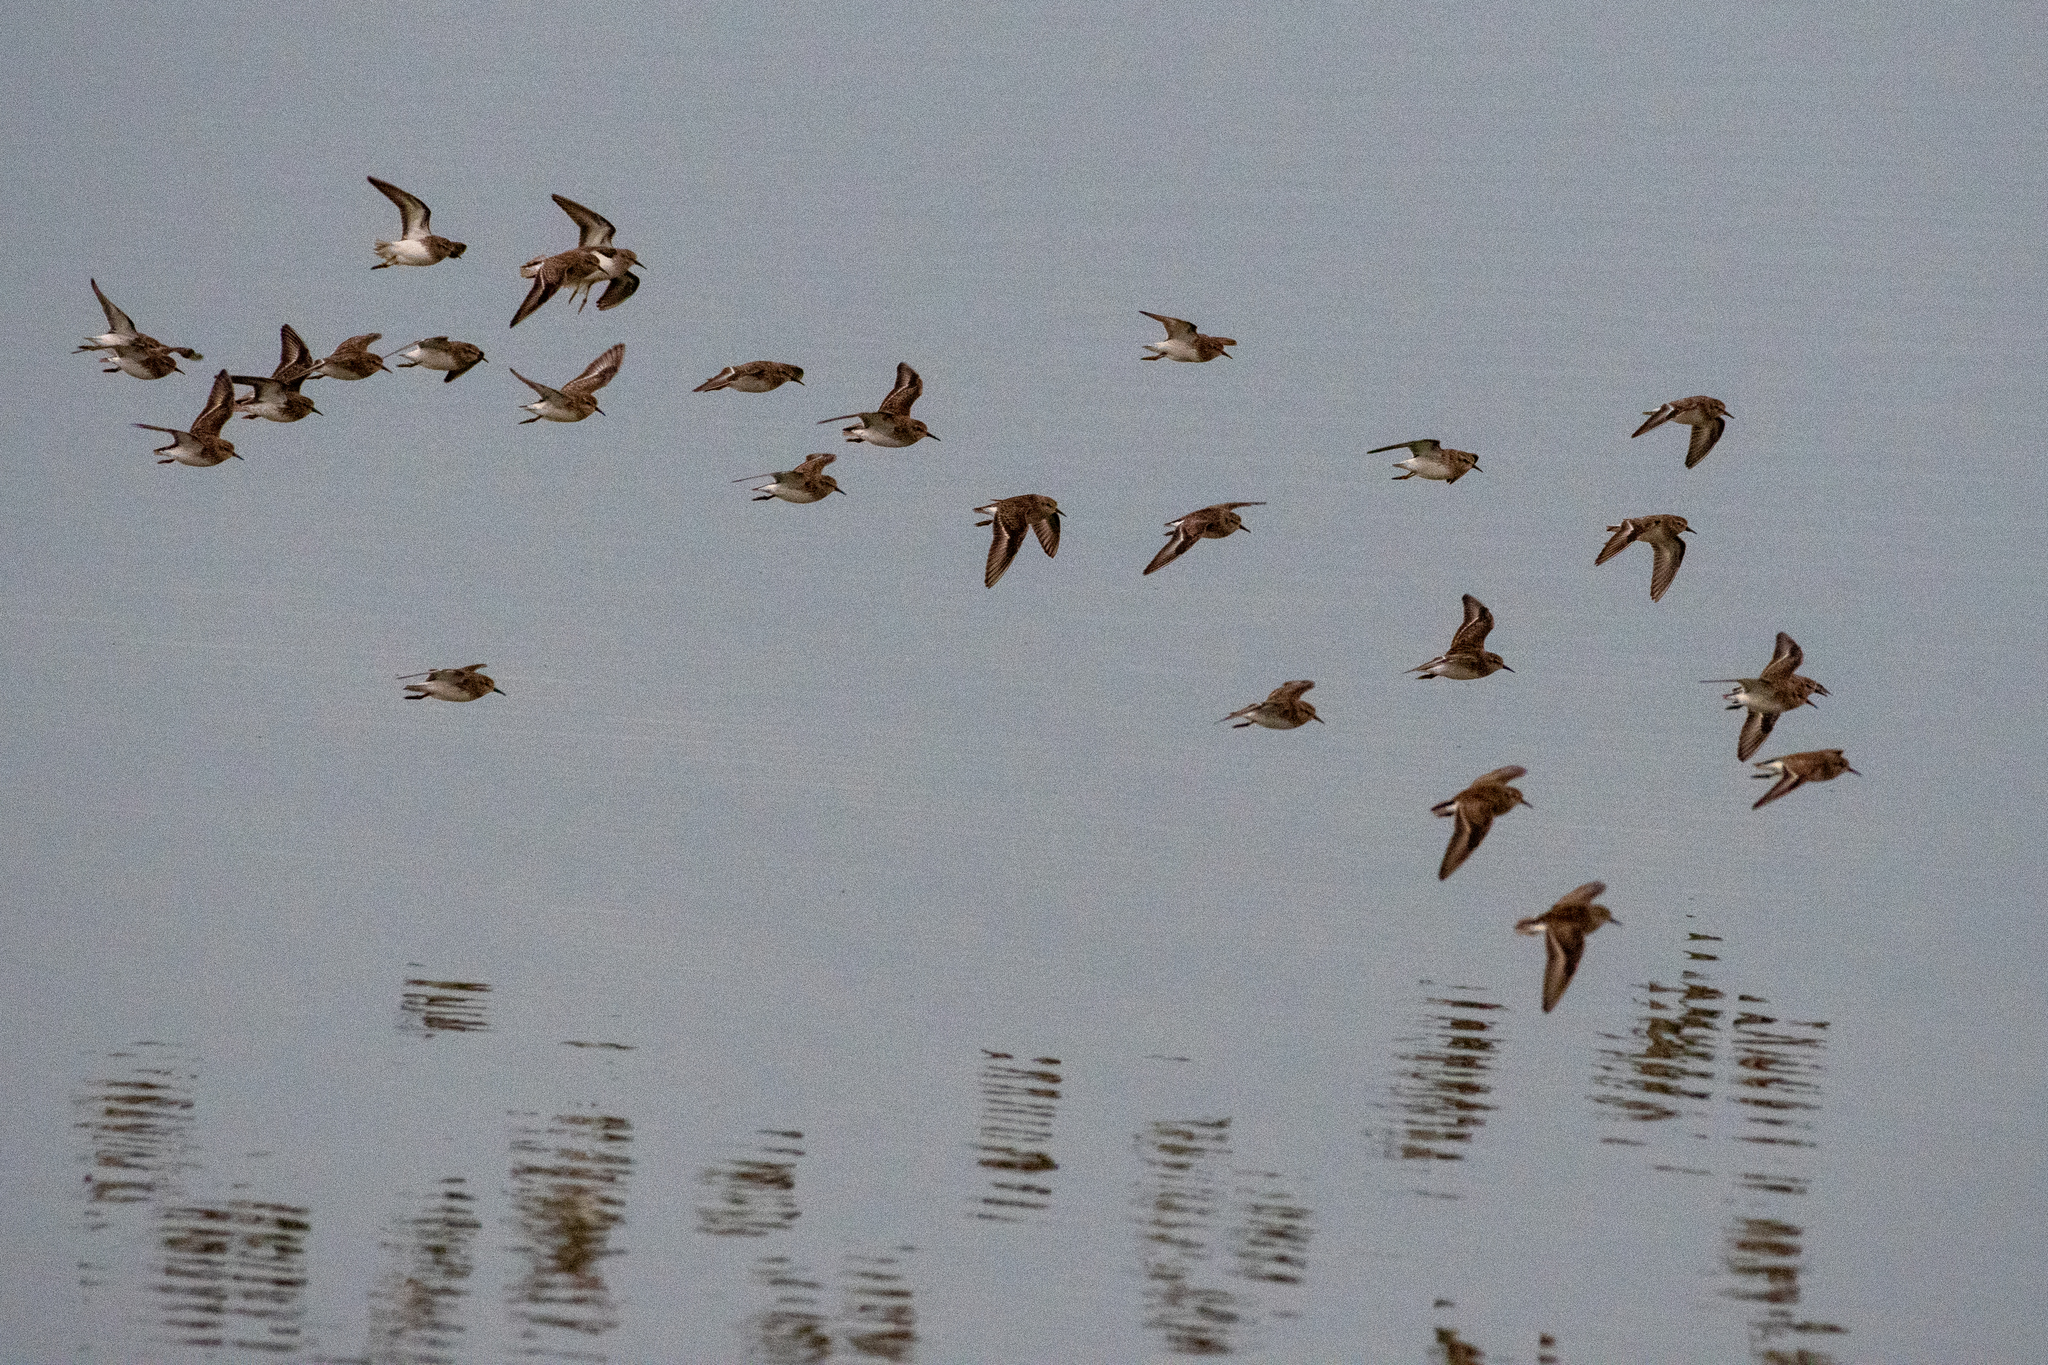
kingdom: Animalia
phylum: Chordata
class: Aves
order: Charadriiformes
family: Scolopacidae
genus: Calidris
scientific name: Calidris minutilla
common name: Least sandpiper
